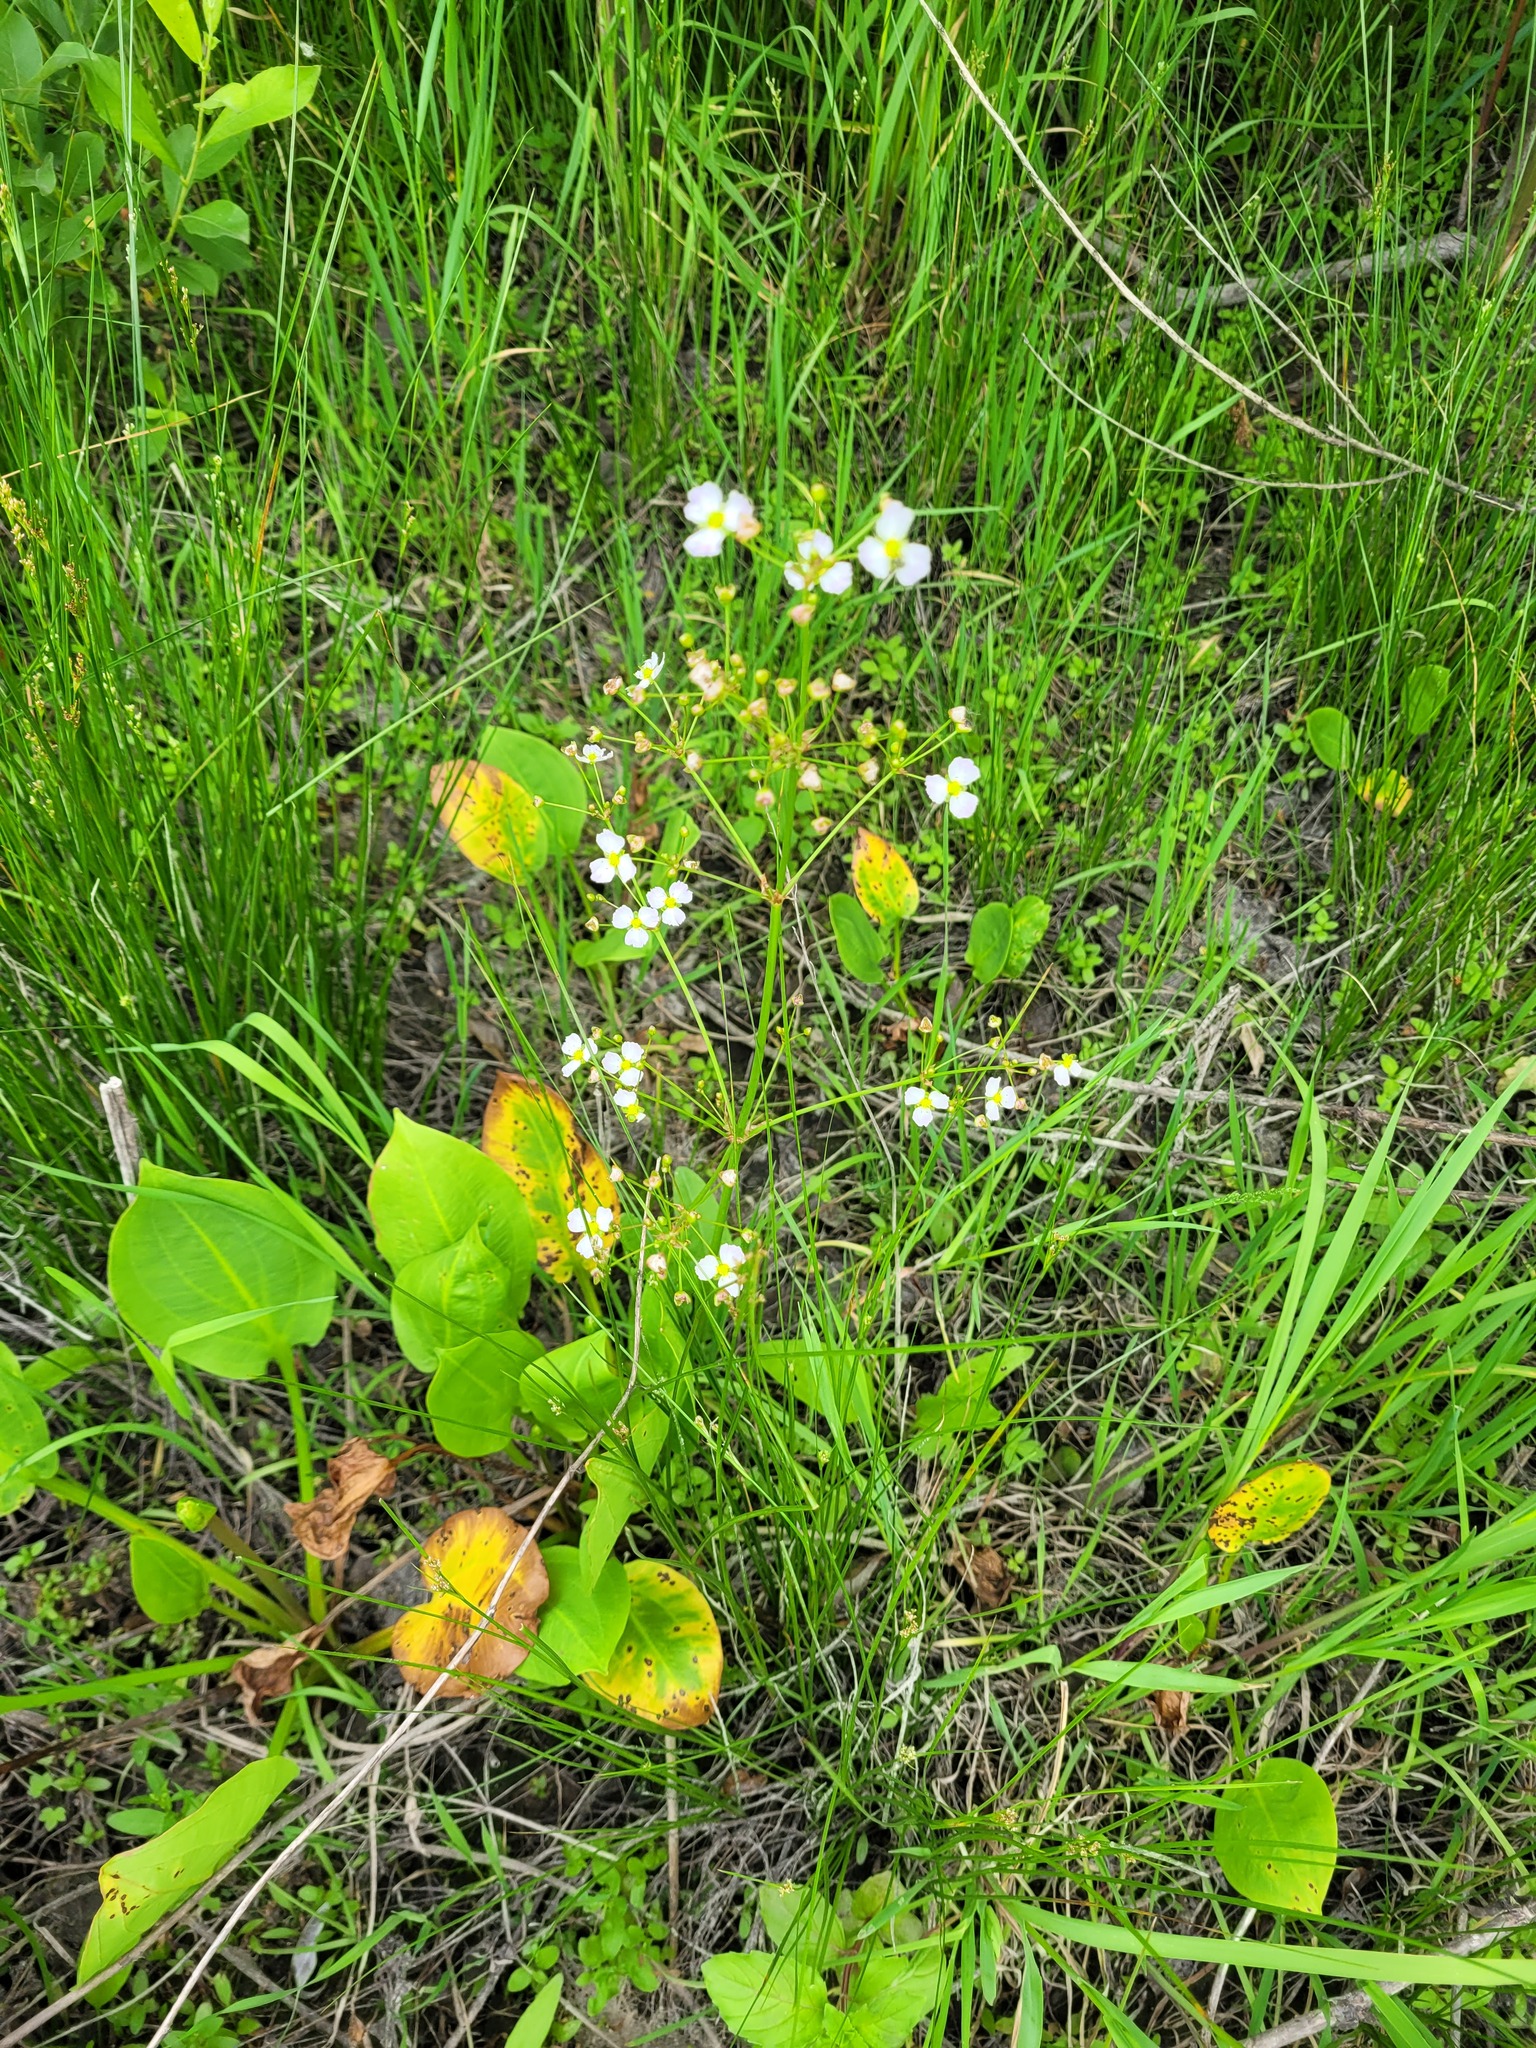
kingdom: Plantae
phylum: Tracheophyta
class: Liliopsida
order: Alismatales
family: Alismataceae
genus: Alisma
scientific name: Alisma plantago-aquatica
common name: Water-plantain
